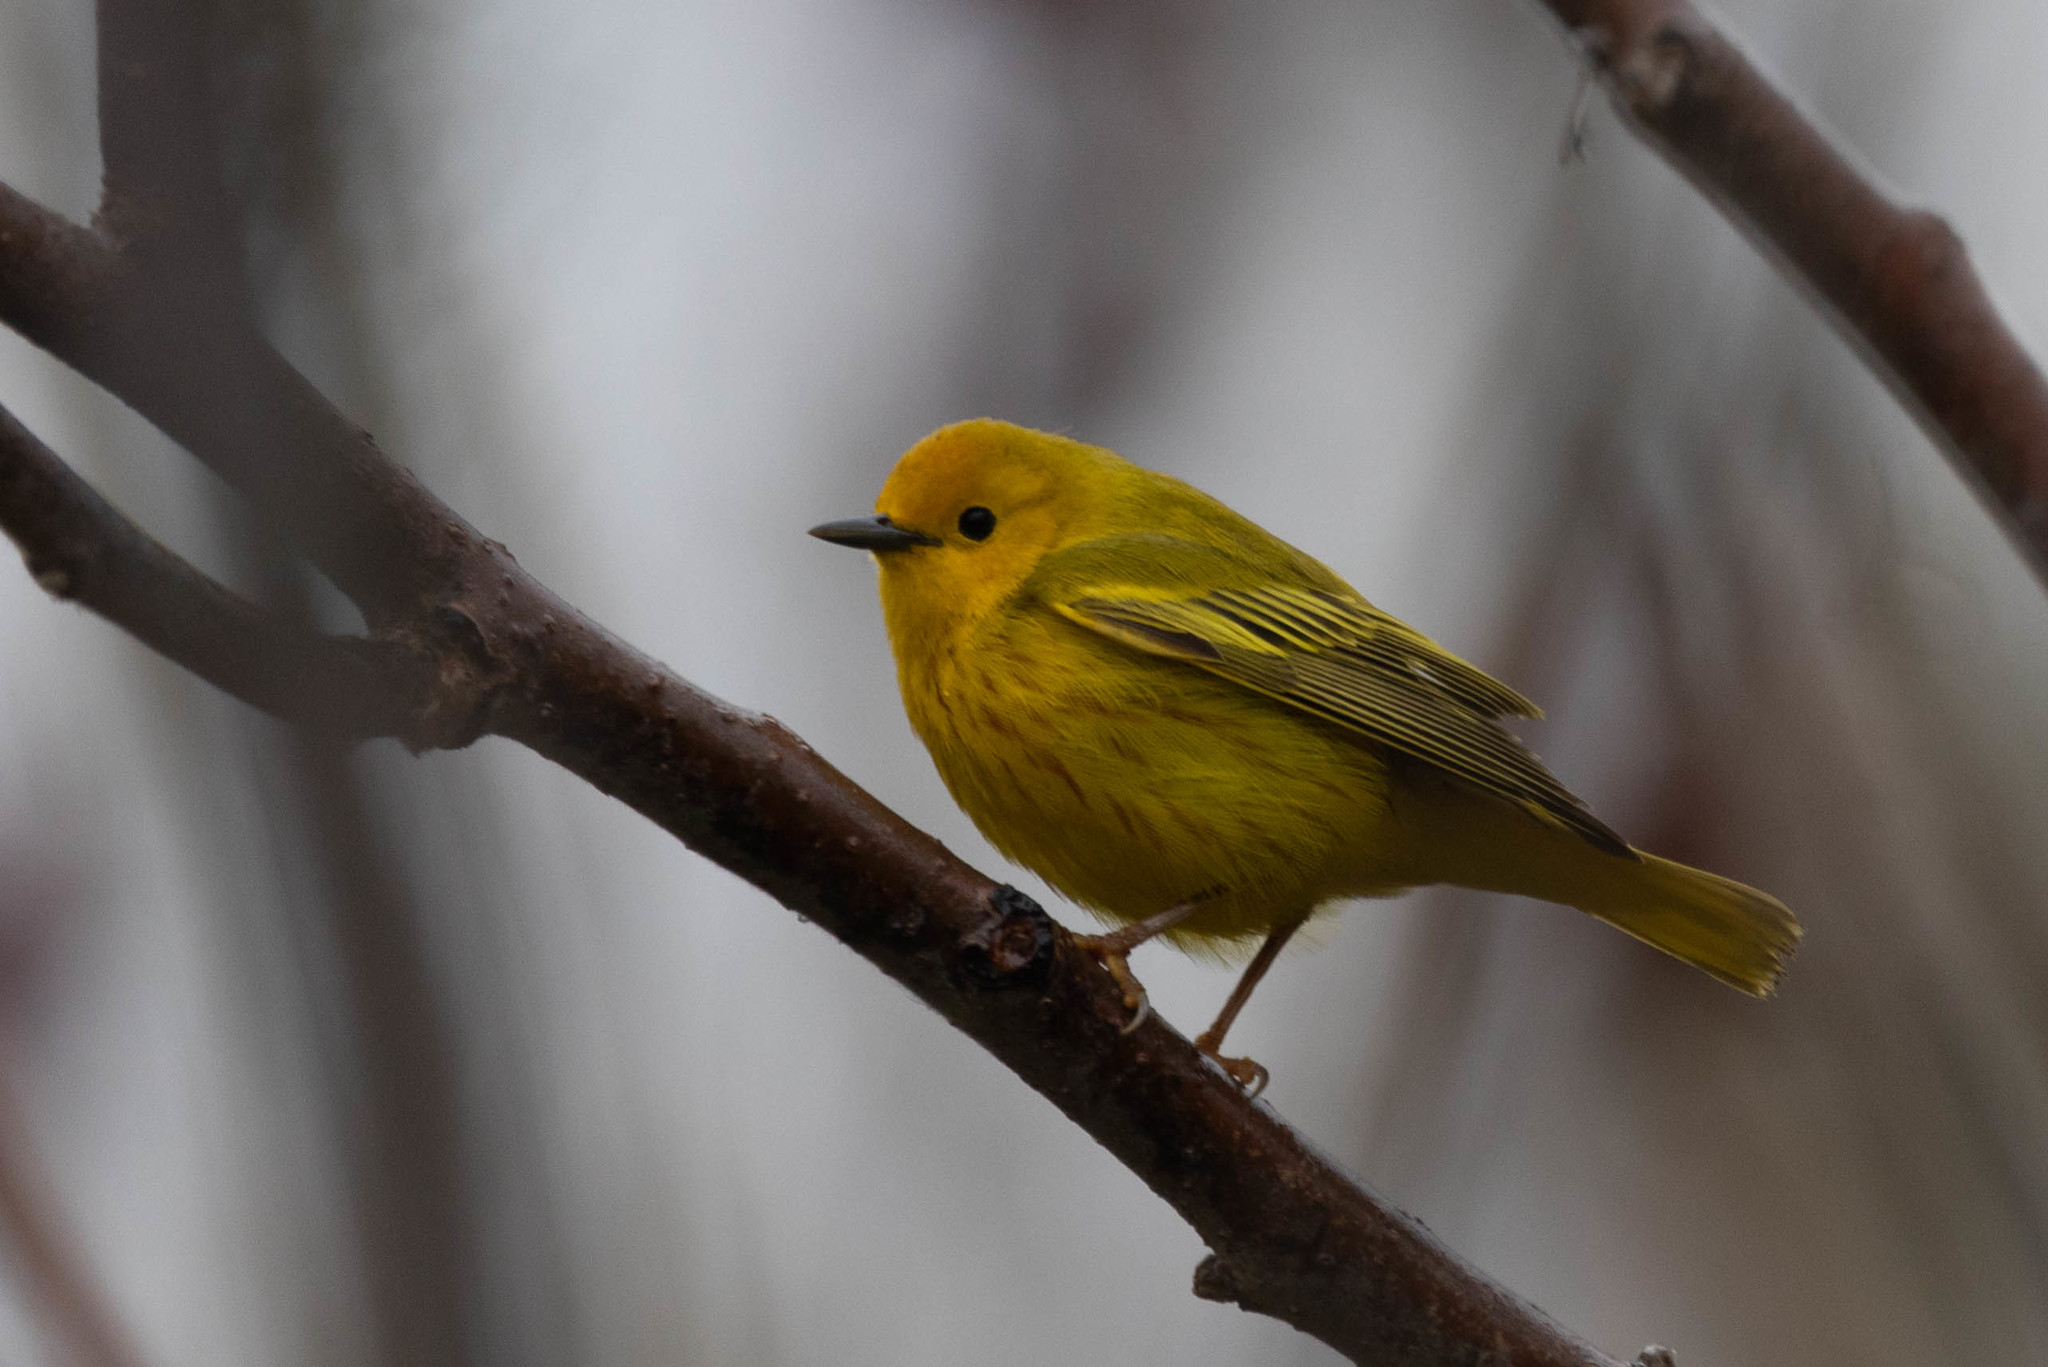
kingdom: Animalia
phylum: Chordata
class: Aves
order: Passeriformes
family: Parulidae
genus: Setophaga
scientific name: Setophaga petechia
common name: Yellow warbler
